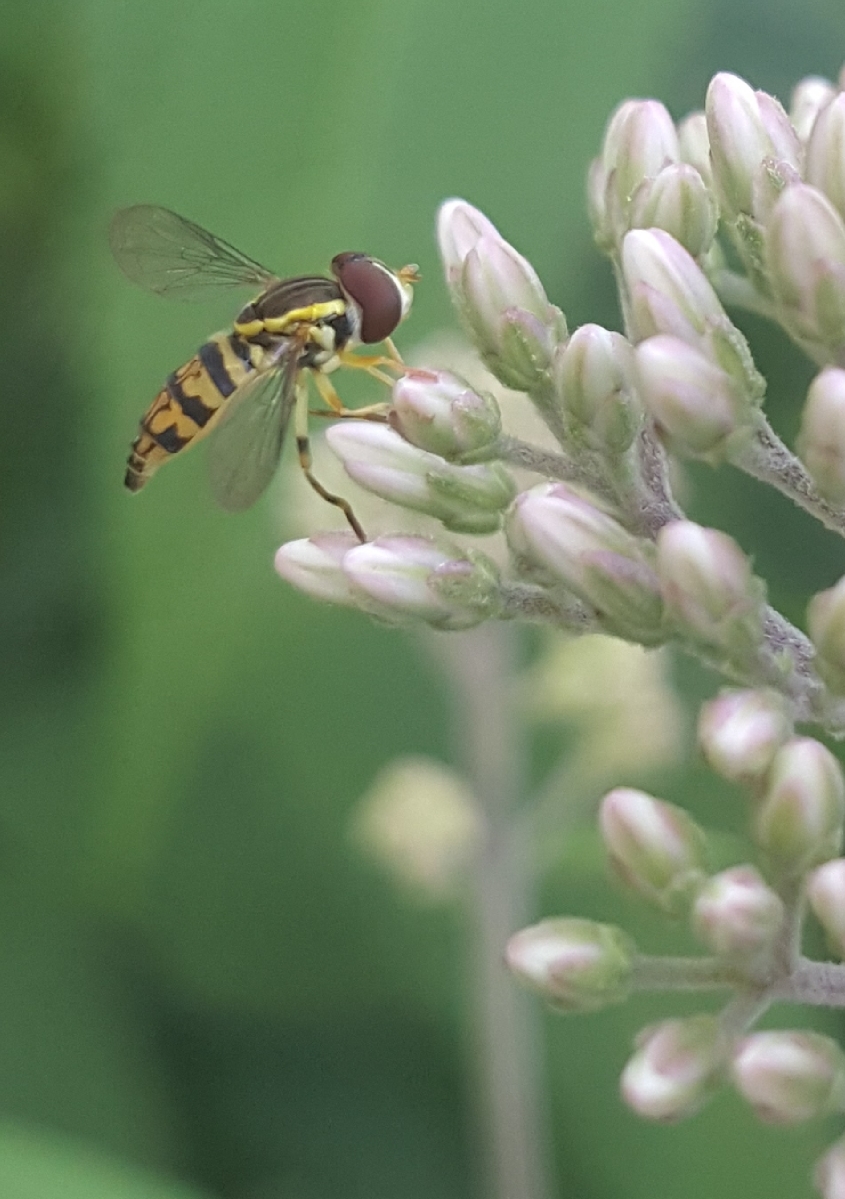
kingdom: Animalia
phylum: Arthropoda
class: Insecta
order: Diptera
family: Syrphidae
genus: Toxomerus
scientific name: Toxomerus geminatus
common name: Eastern calligrapher
